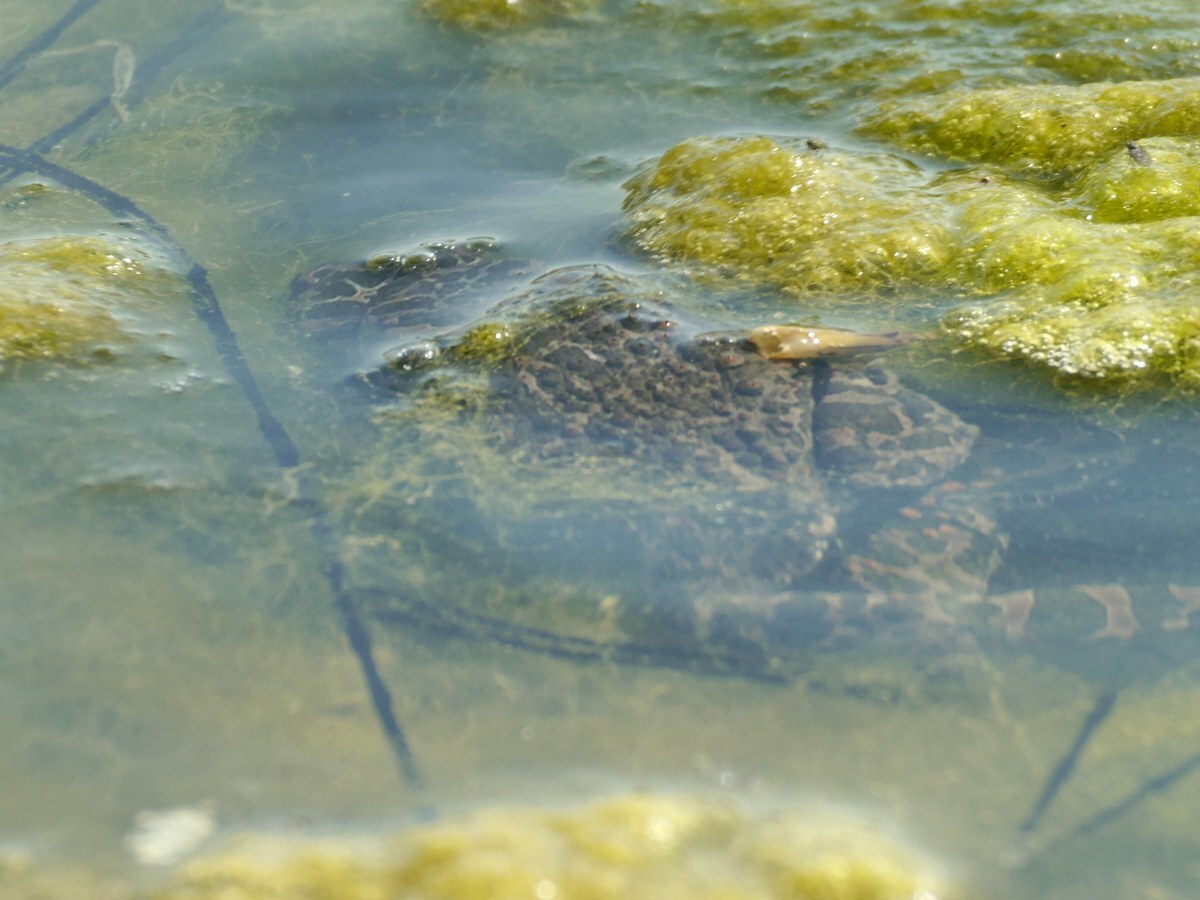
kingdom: Animalia
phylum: Chordata
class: Amphibia
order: Anura
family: Bufonidae
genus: Bufotes
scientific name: Bufotes viridis
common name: European green toad
